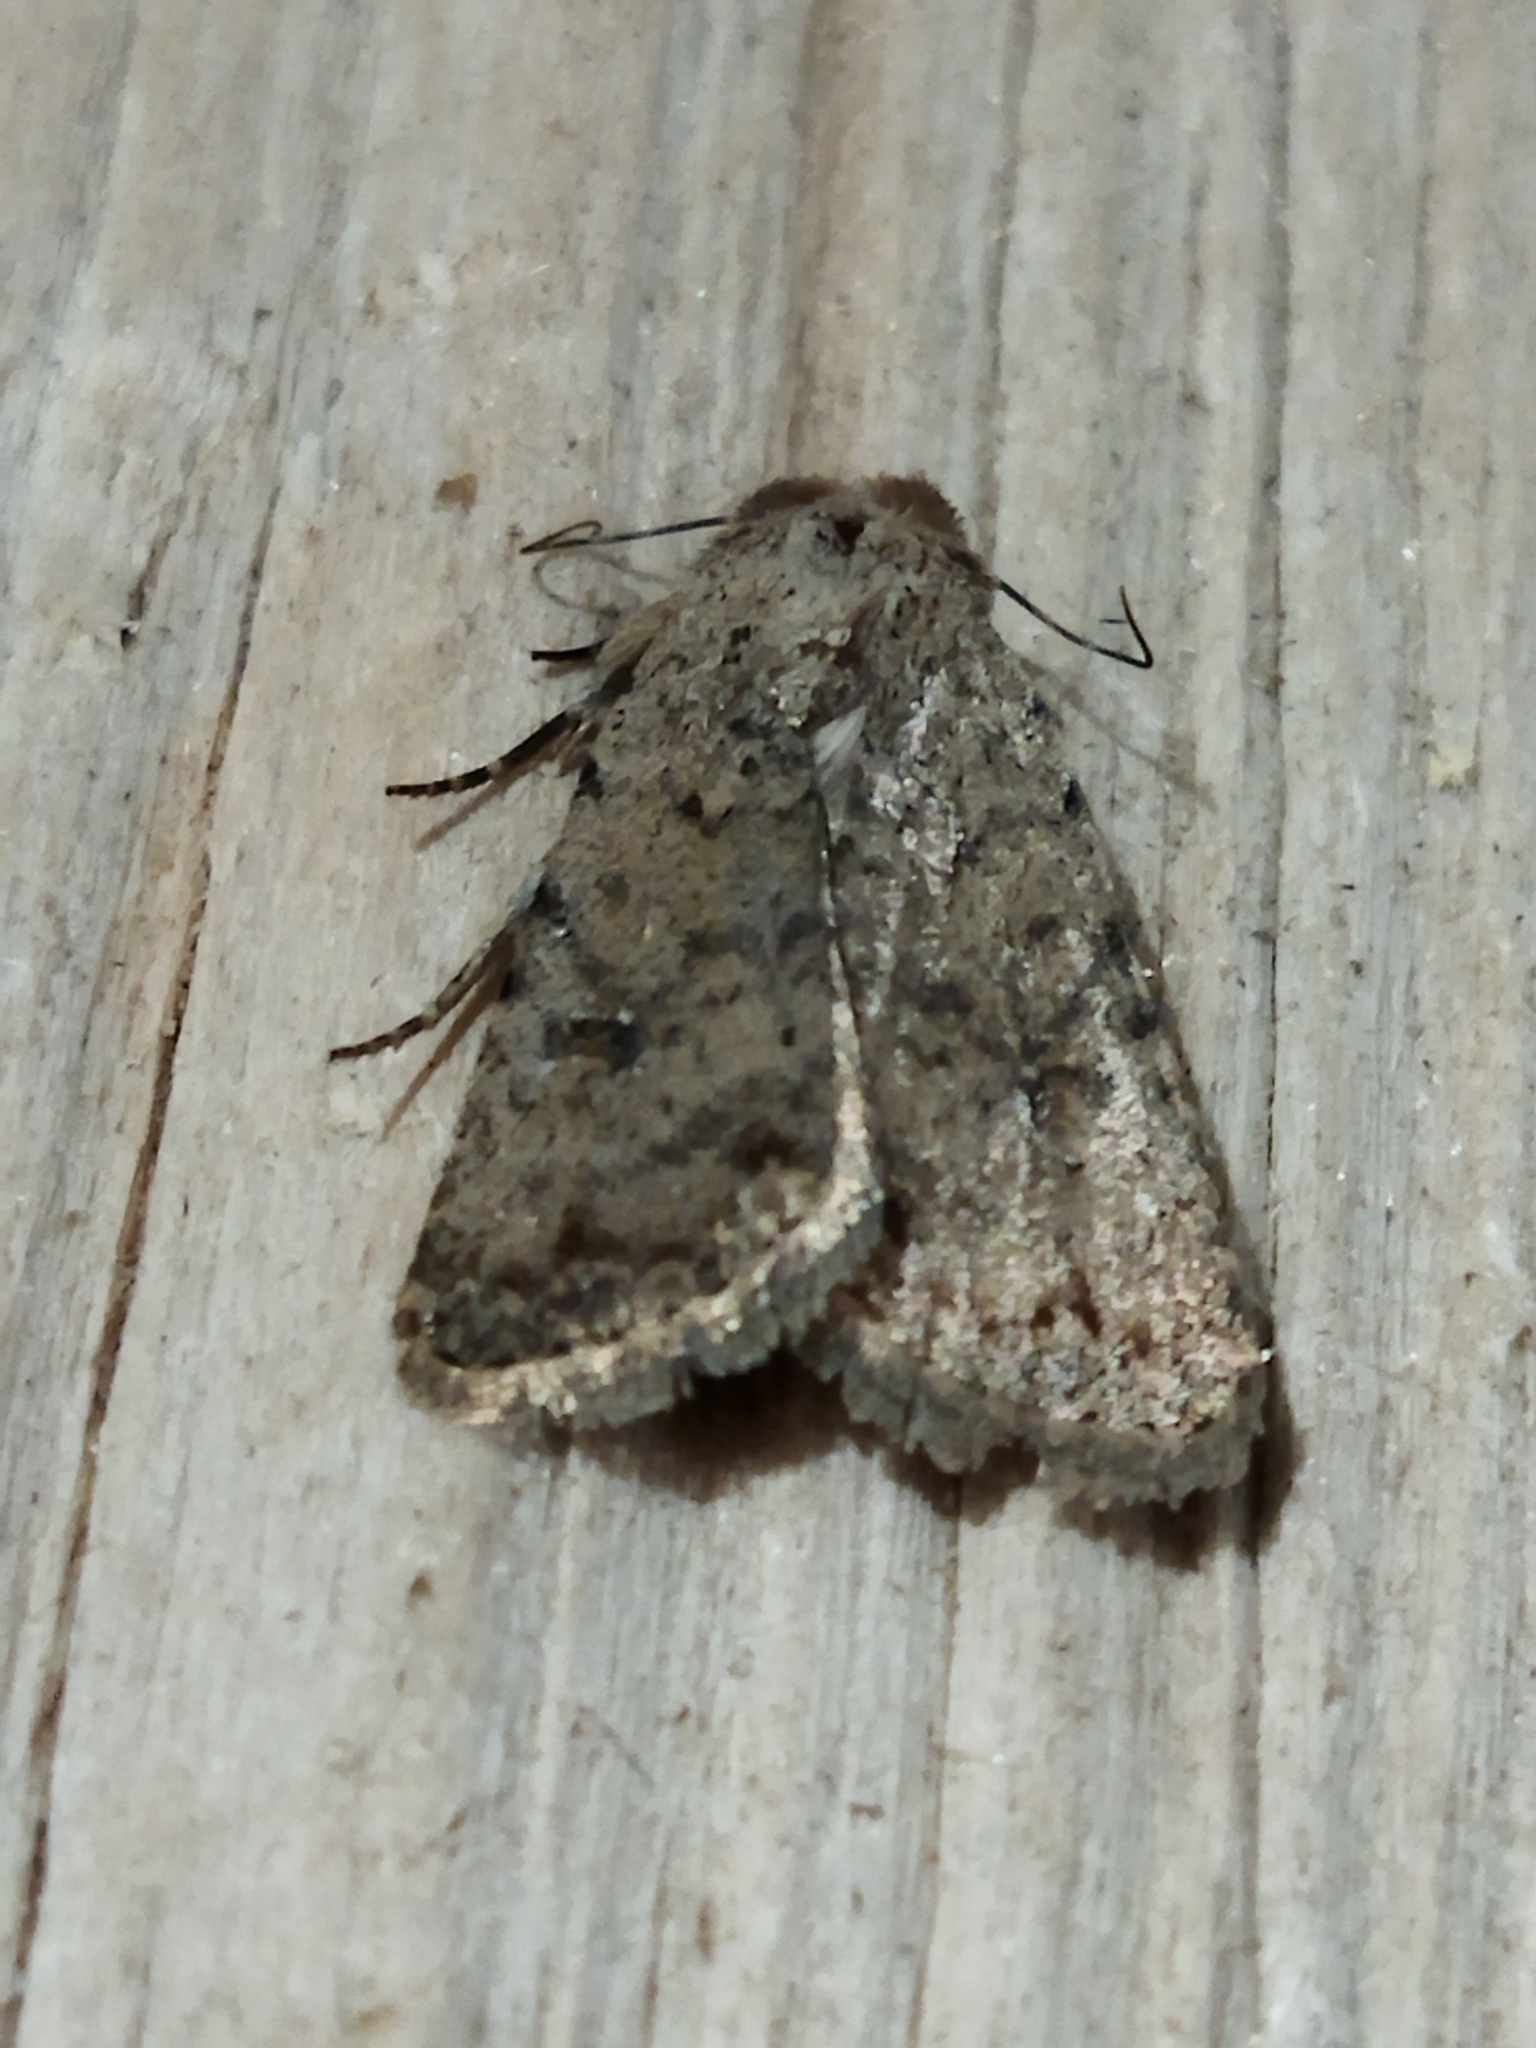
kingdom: Animalia
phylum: Arthropoda
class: Insecta
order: Lepidoptera
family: Noctuidae
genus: Caradrina
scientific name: Caradrina clavipalpis
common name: Pale mottled willow
